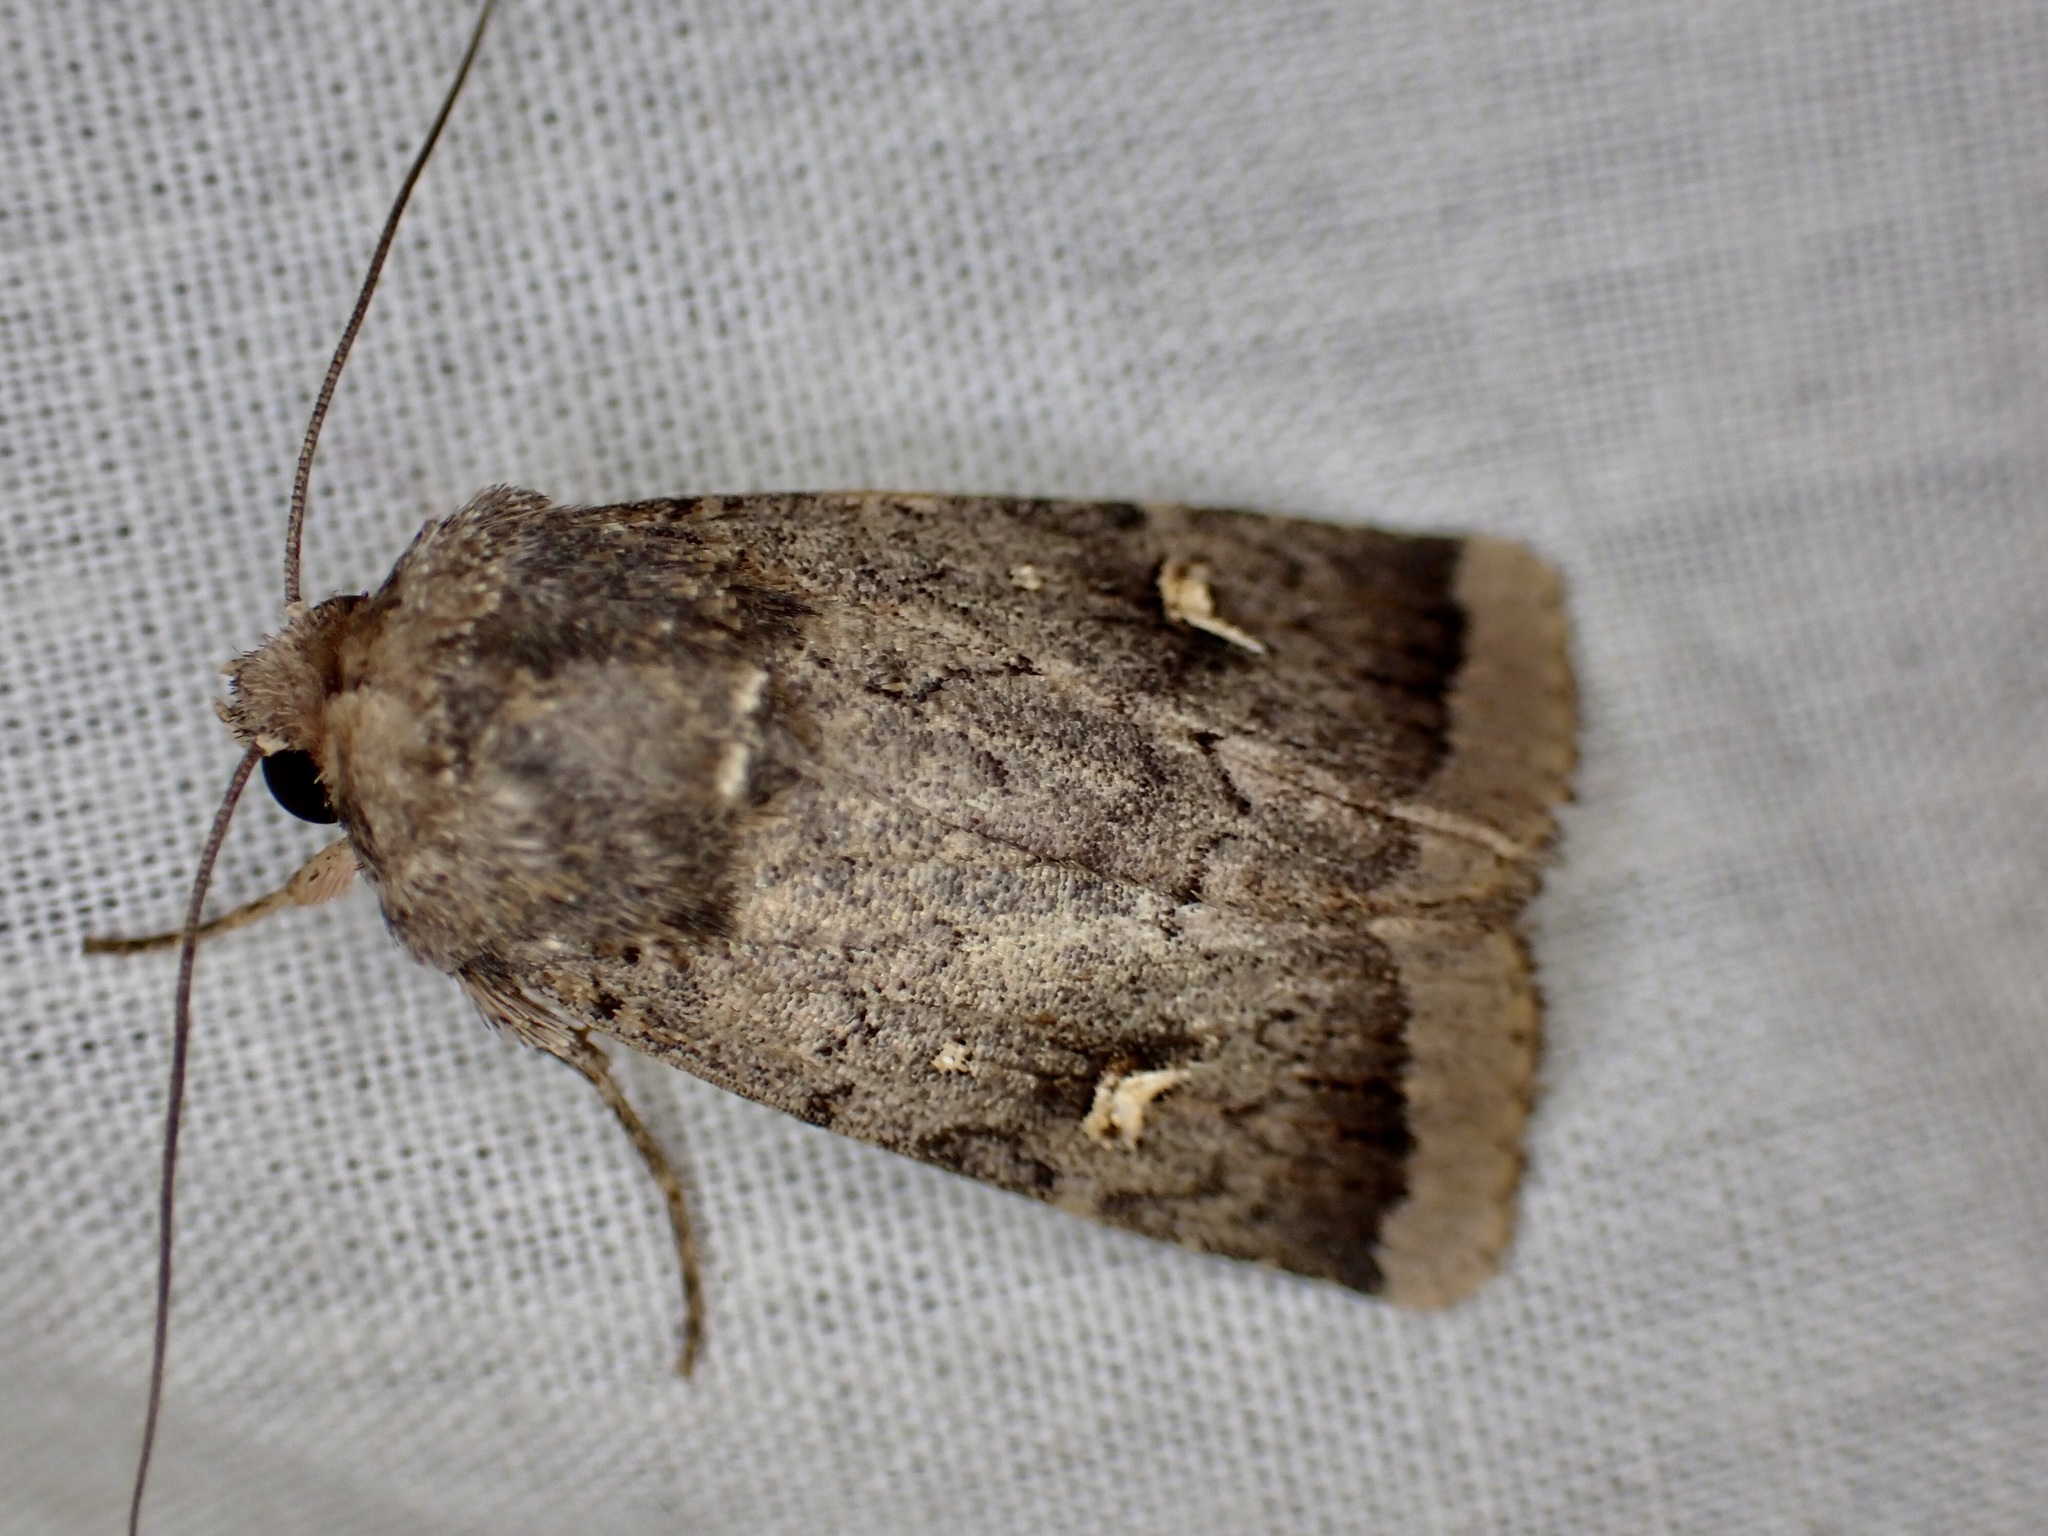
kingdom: Animalia
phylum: Arthropoda
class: Insecta
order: Lepidoptera
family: Noctuidae
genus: Proteuxoa
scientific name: Proteuxoa tetronycha
